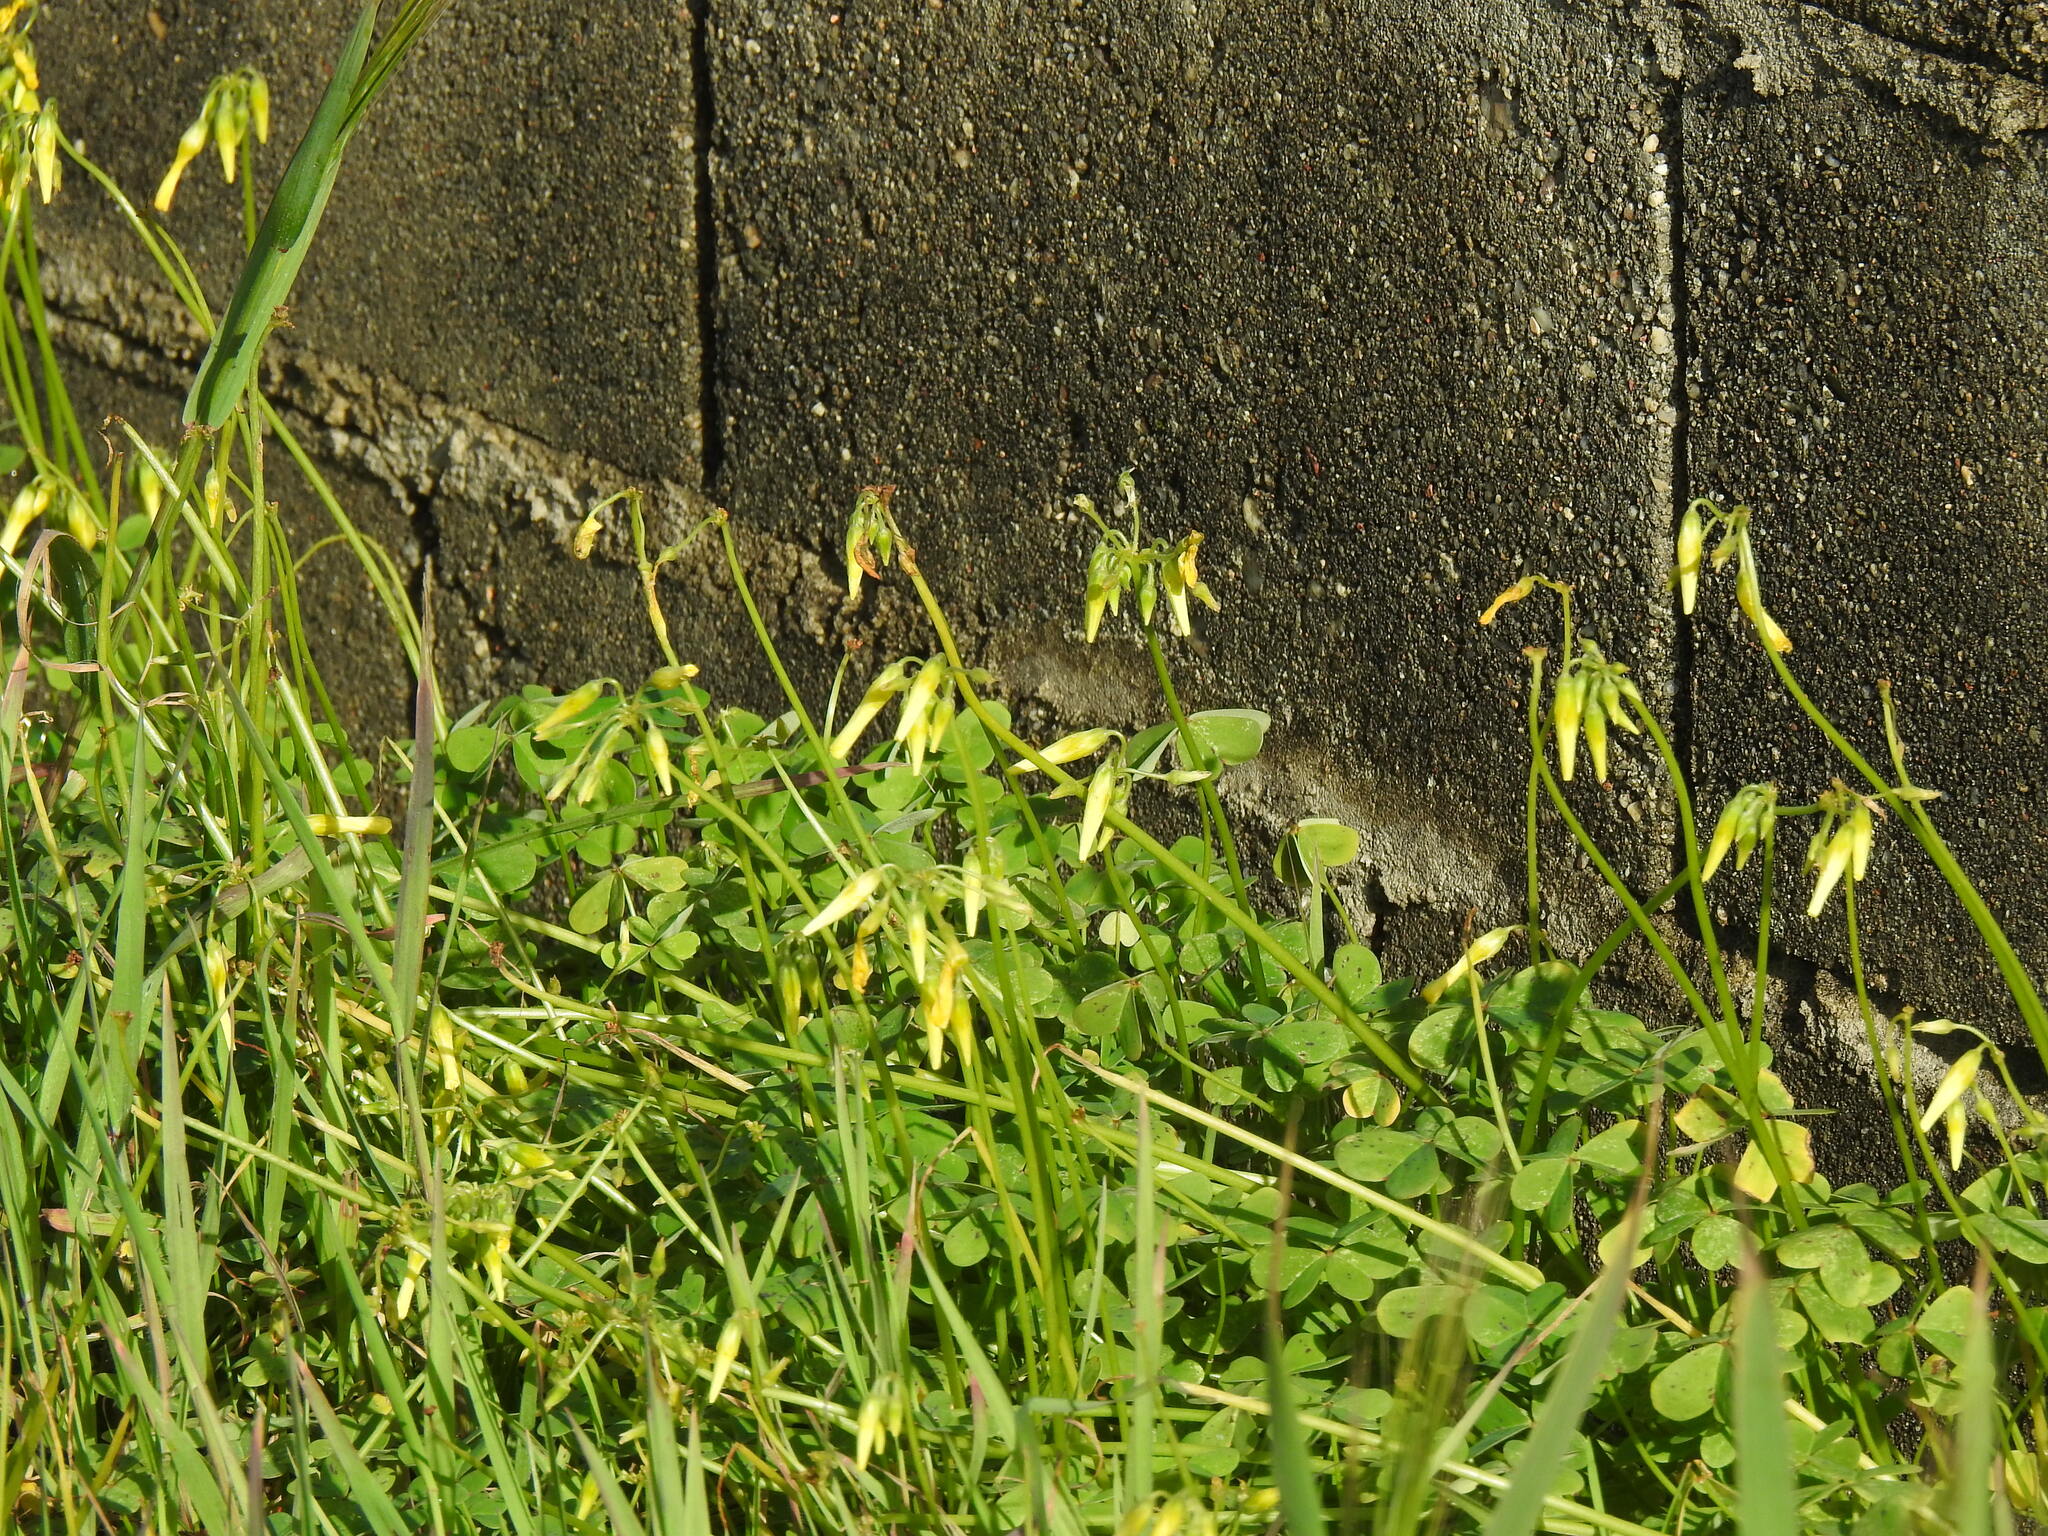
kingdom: Plantae
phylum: Tracheophyta
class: Magnoliopsida
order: Oxalidales
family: Oxalidaceae
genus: Oxalis
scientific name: Oxalis pes-caprae
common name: Bermuda-buttercup
